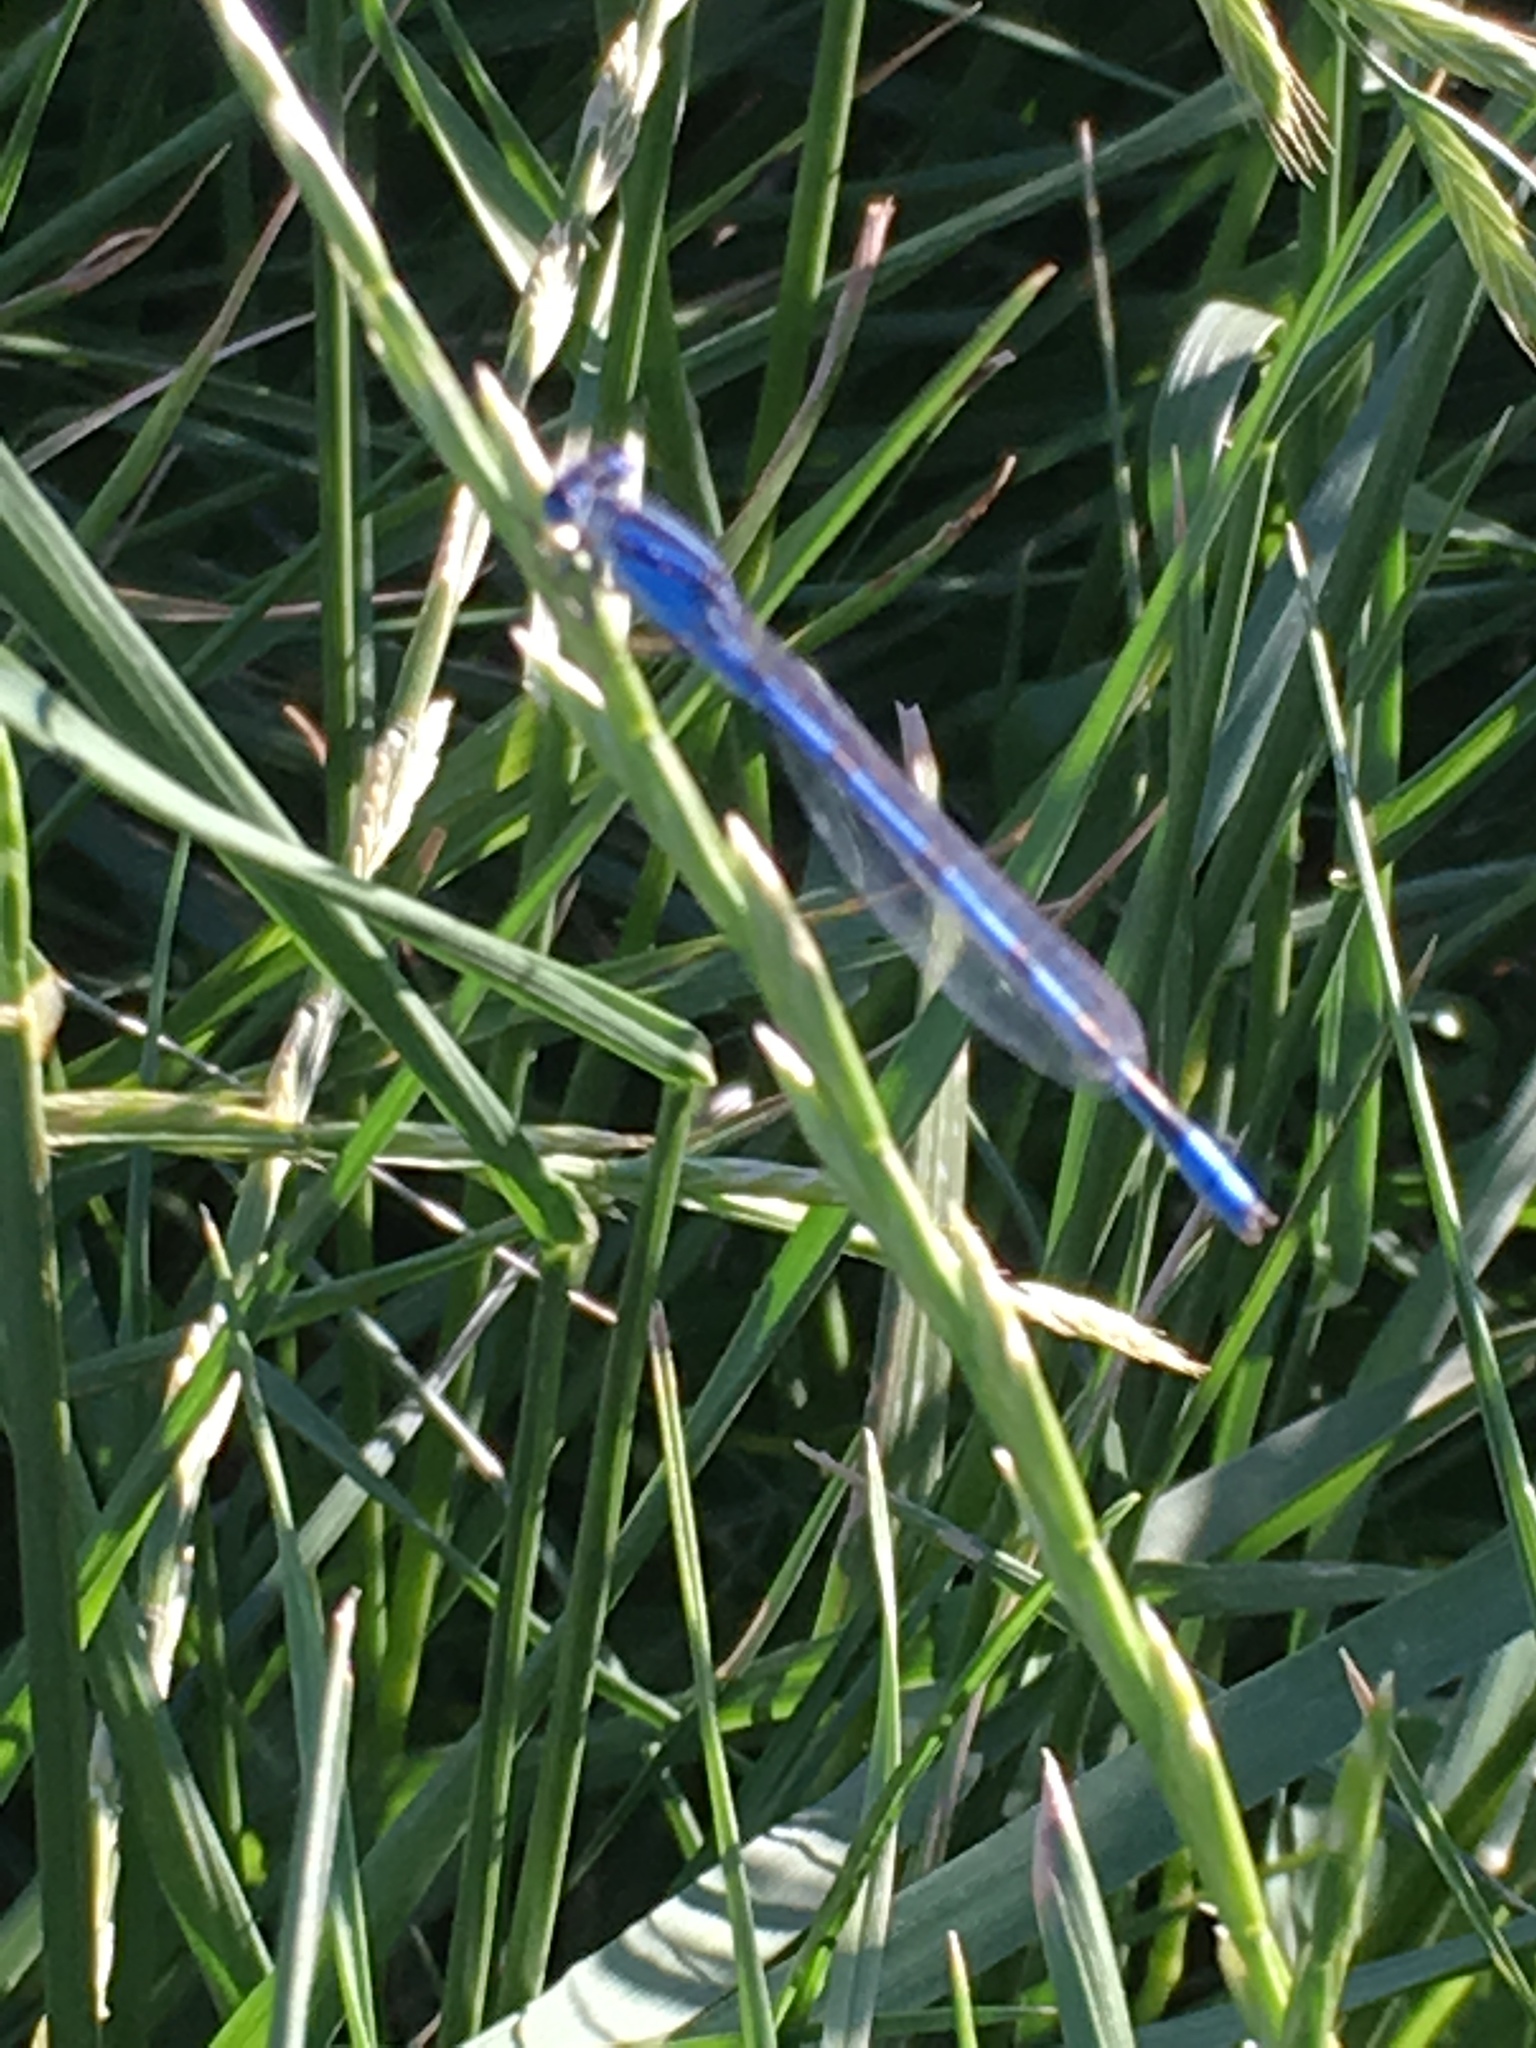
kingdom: Animalia
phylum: Arthropoda
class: Insecta
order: Odonata
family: Coenagrionidae
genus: Enallagma
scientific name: Enallagma civile
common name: Damselfly
